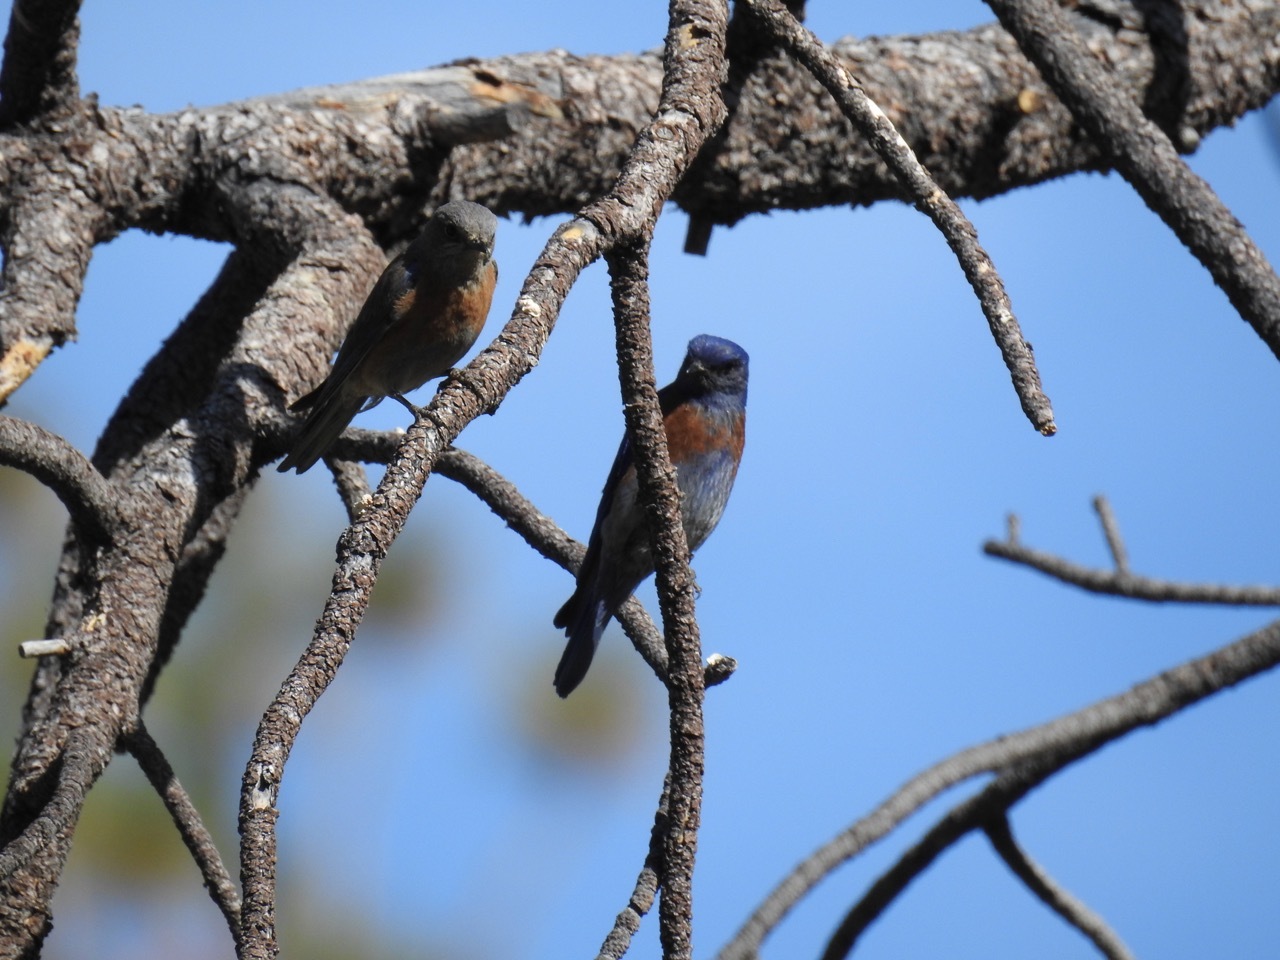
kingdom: Animalia
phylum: Chordata
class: Aves
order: Passeriformes
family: Turdidae
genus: Sialia
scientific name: Sialia mexicana
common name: Western bluebird
